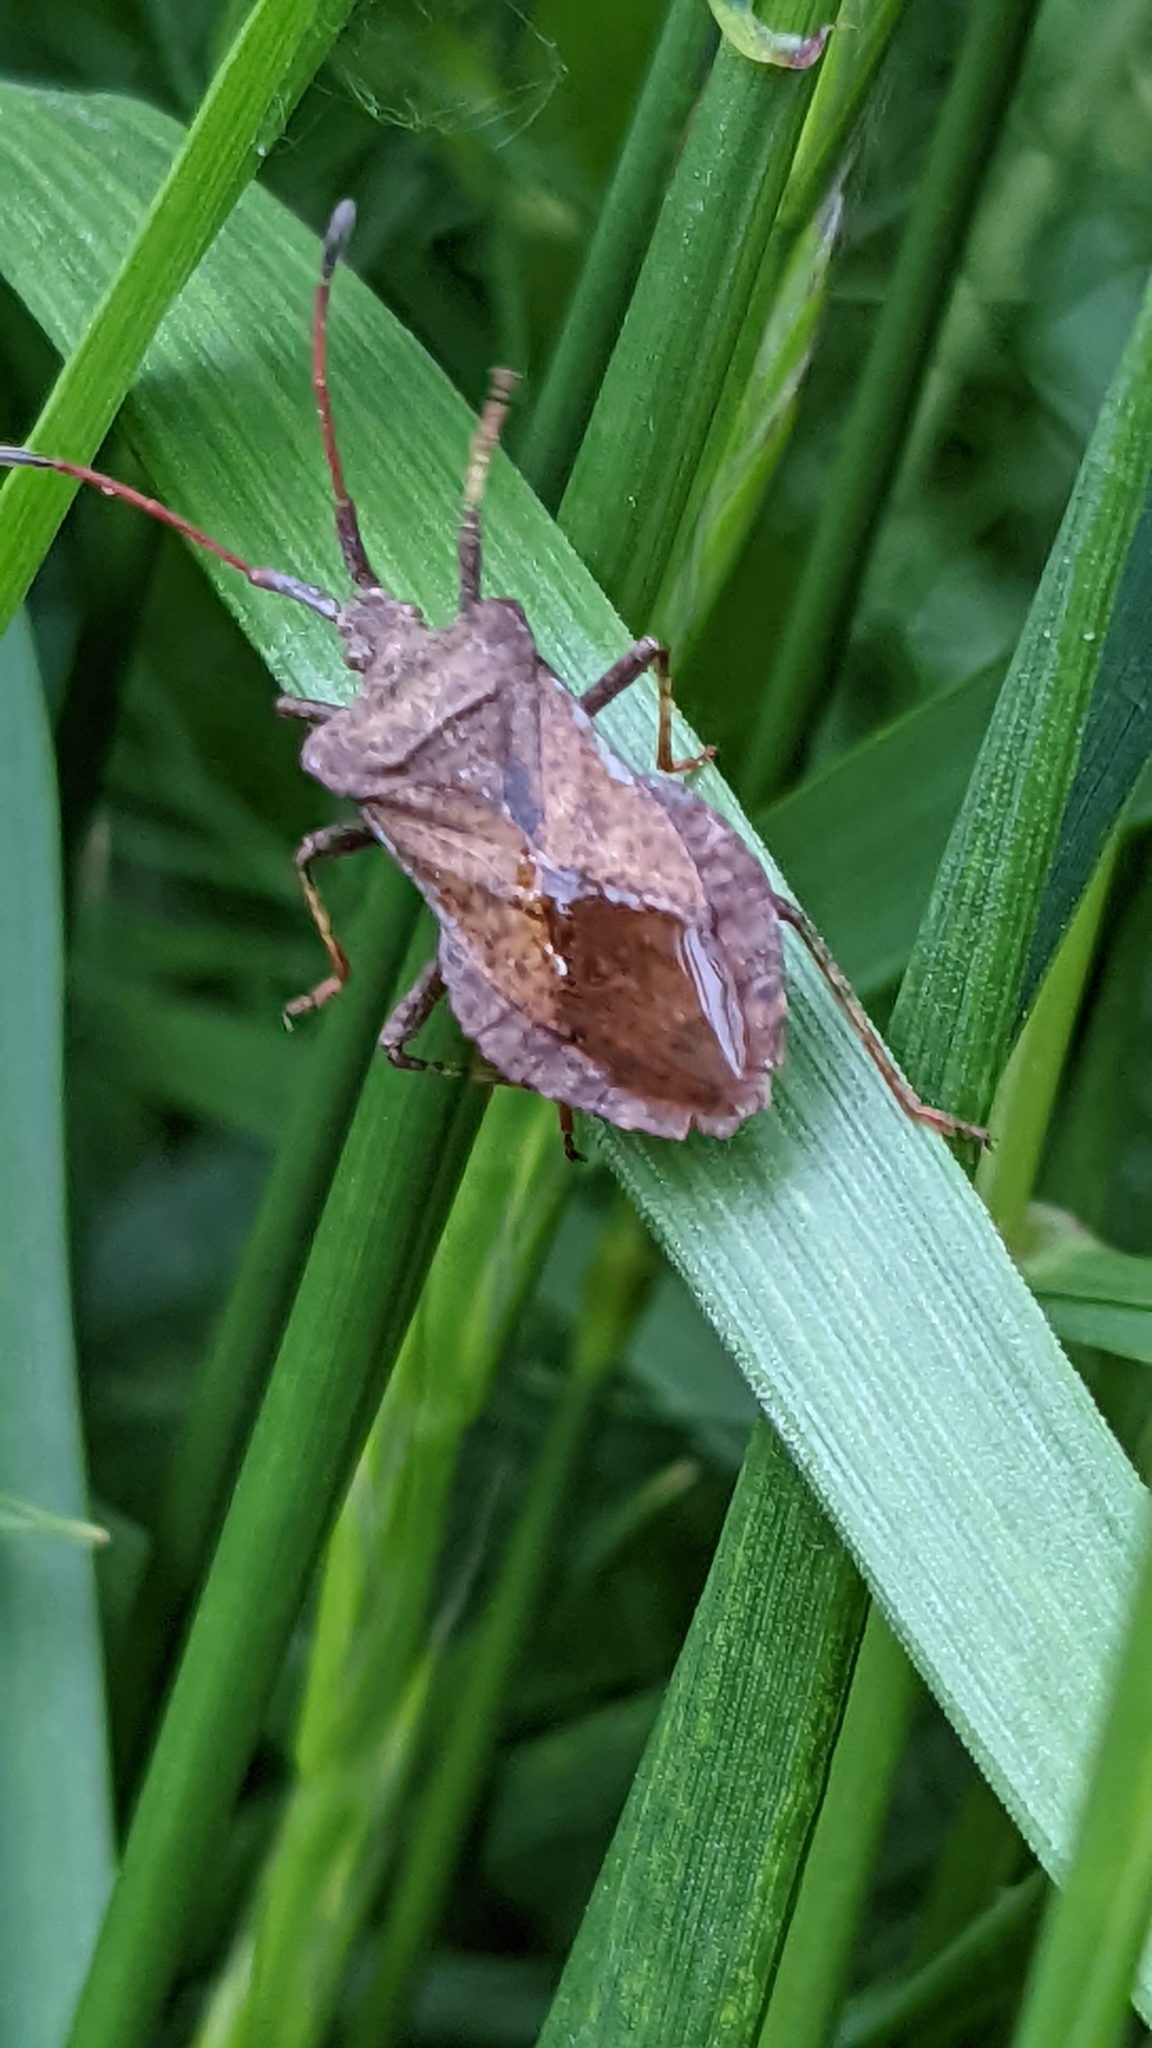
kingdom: Animalia
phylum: Arthropoda
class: Insecta
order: Hemiptera
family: Coreidae
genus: Coreus
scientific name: Coreus marginatus
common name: Dock bug
